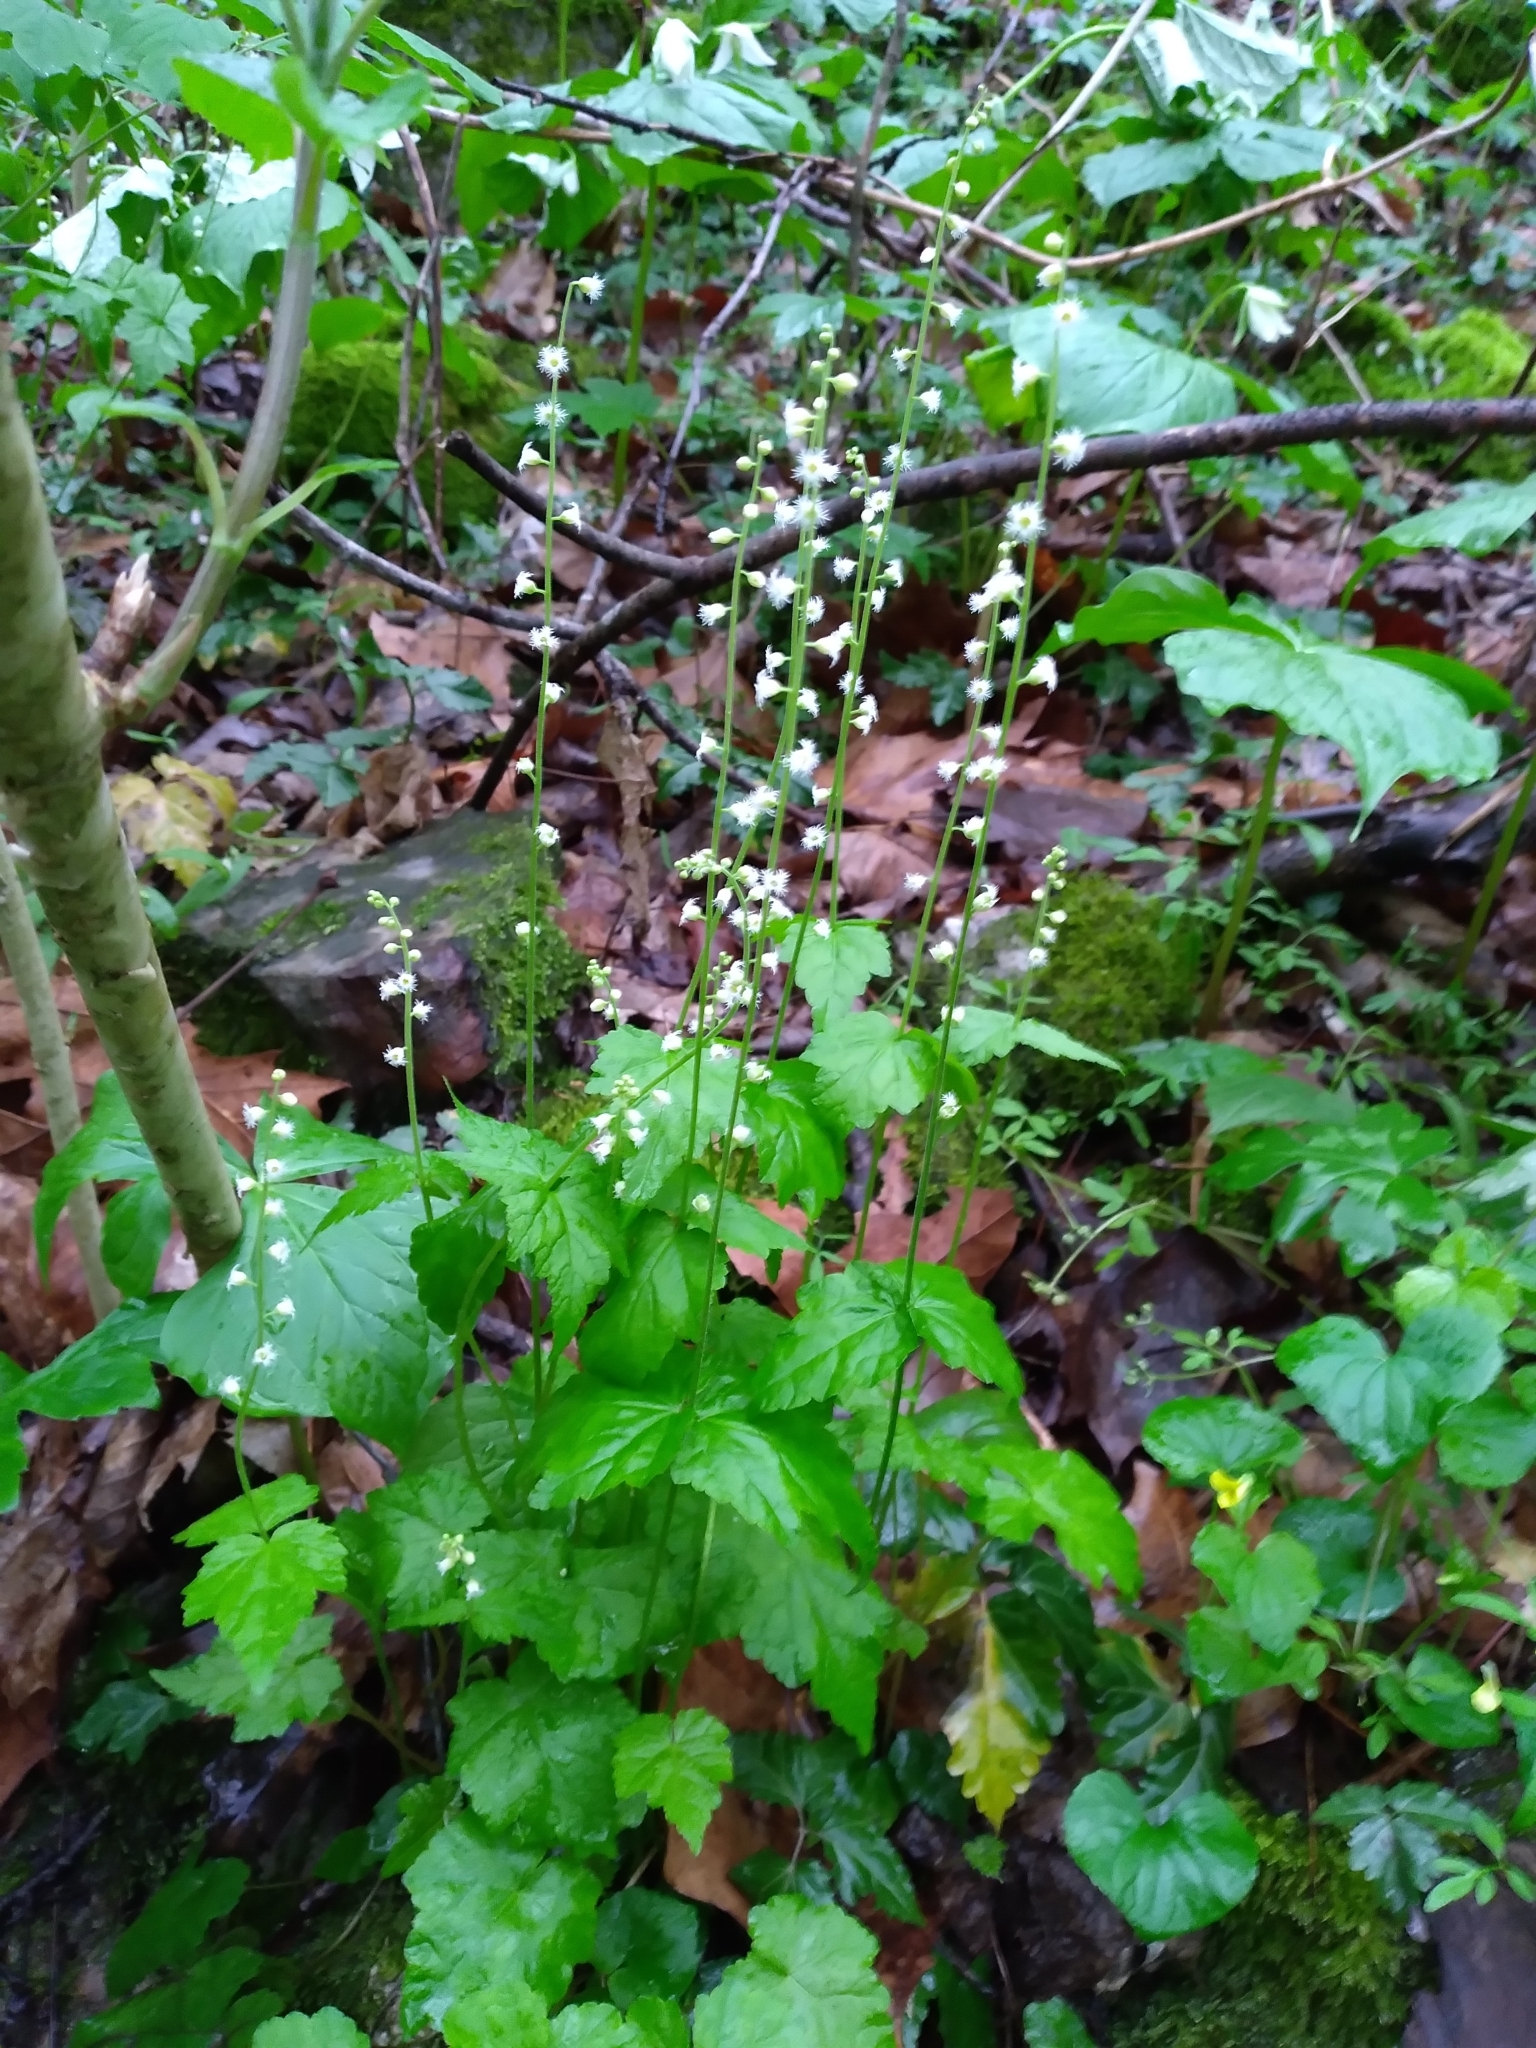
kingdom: Plantae
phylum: Tracheophyta
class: Magnoliopsida
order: Saxifragales
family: Saxifragaceae
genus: Mitella
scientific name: Mitella diphylla
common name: Coolwort
